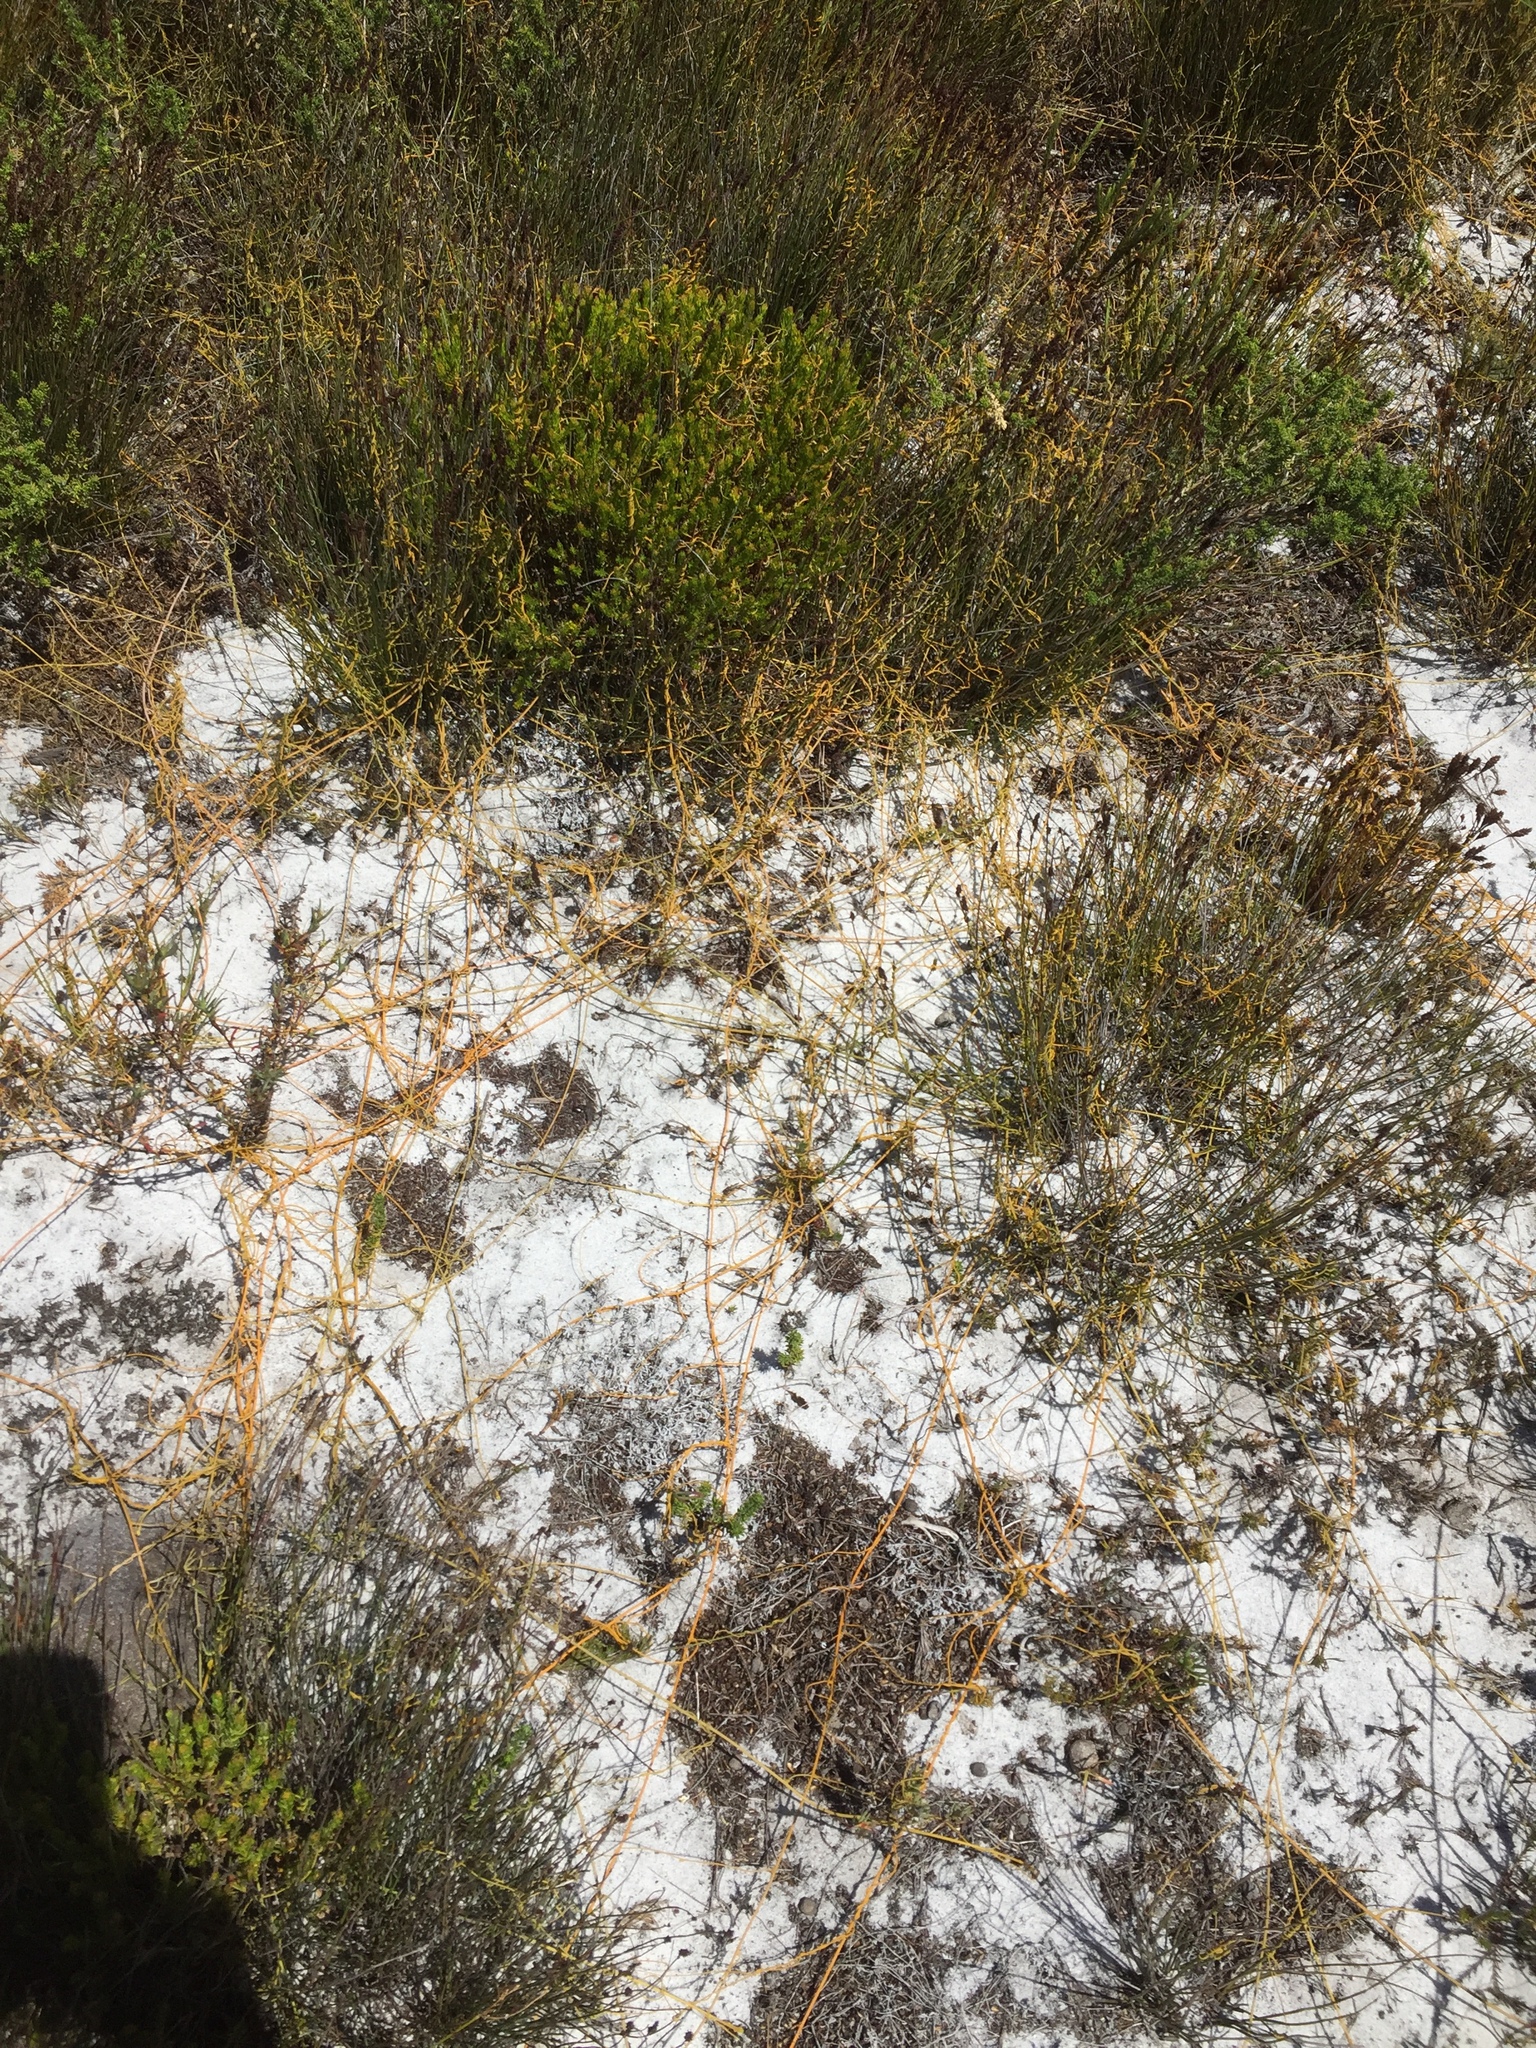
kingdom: Plantae
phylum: Tracheophyta
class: Magnoliopsida
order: Laurales
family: Lauraceae
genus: Cassytha
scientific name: Cassytha ciliolata
